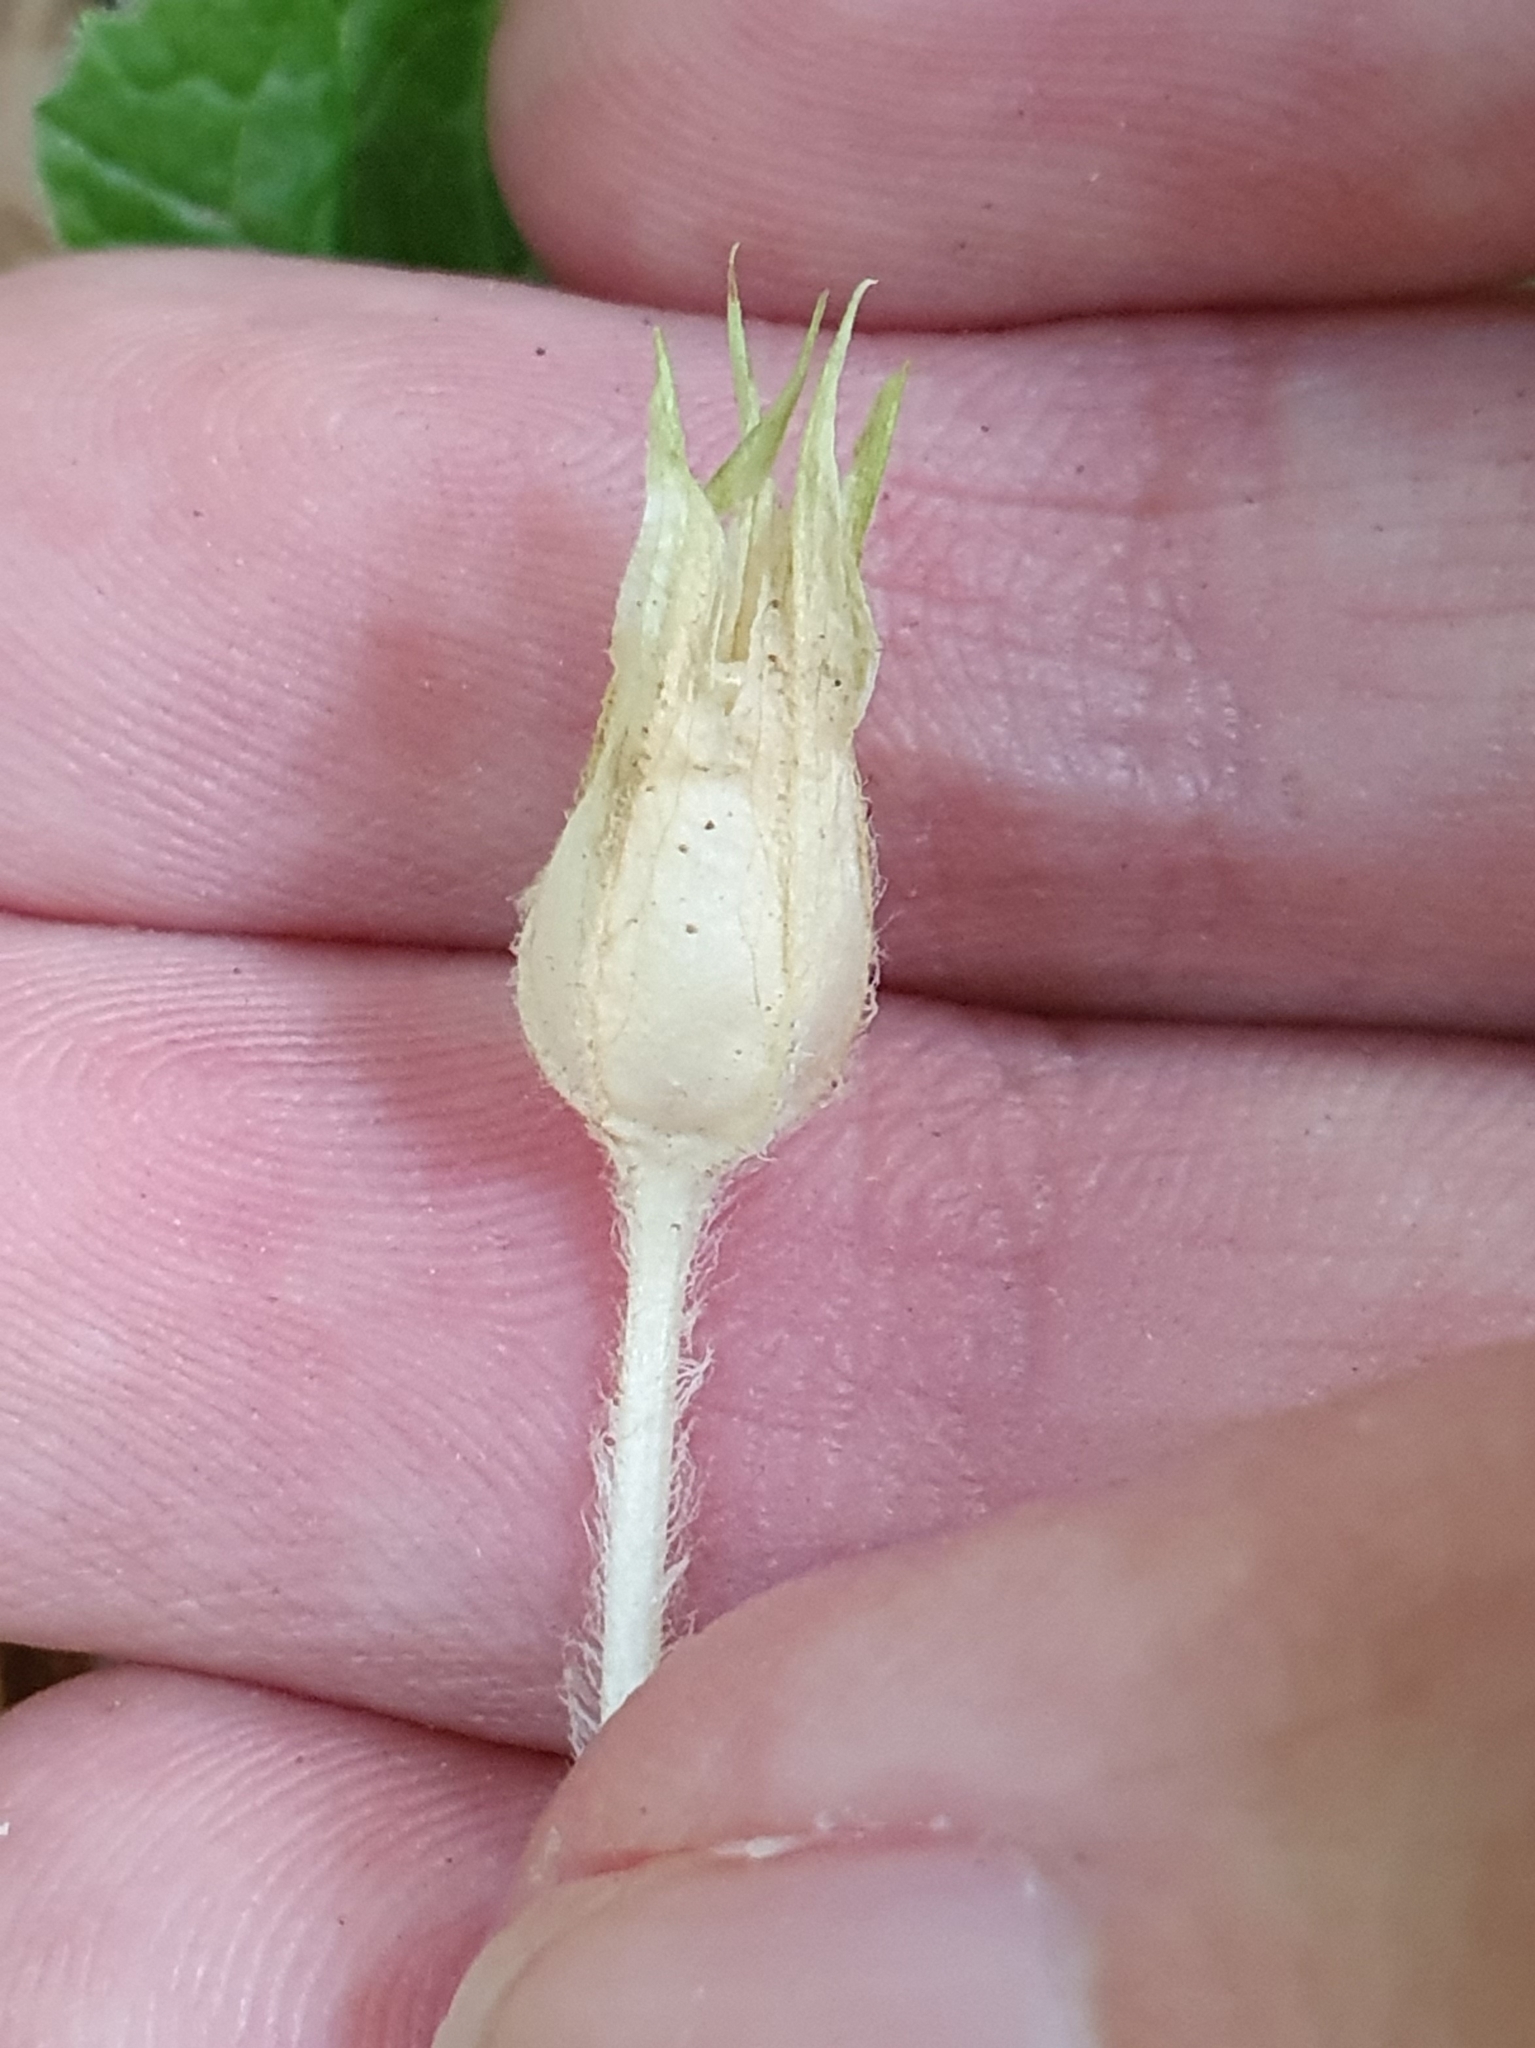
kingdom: Plantae
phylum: Tracheophyta
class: Magnoliopsida
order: Ericales
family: Primulaceae
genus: Primula
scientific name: Primula vulgaris
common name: Primrose
